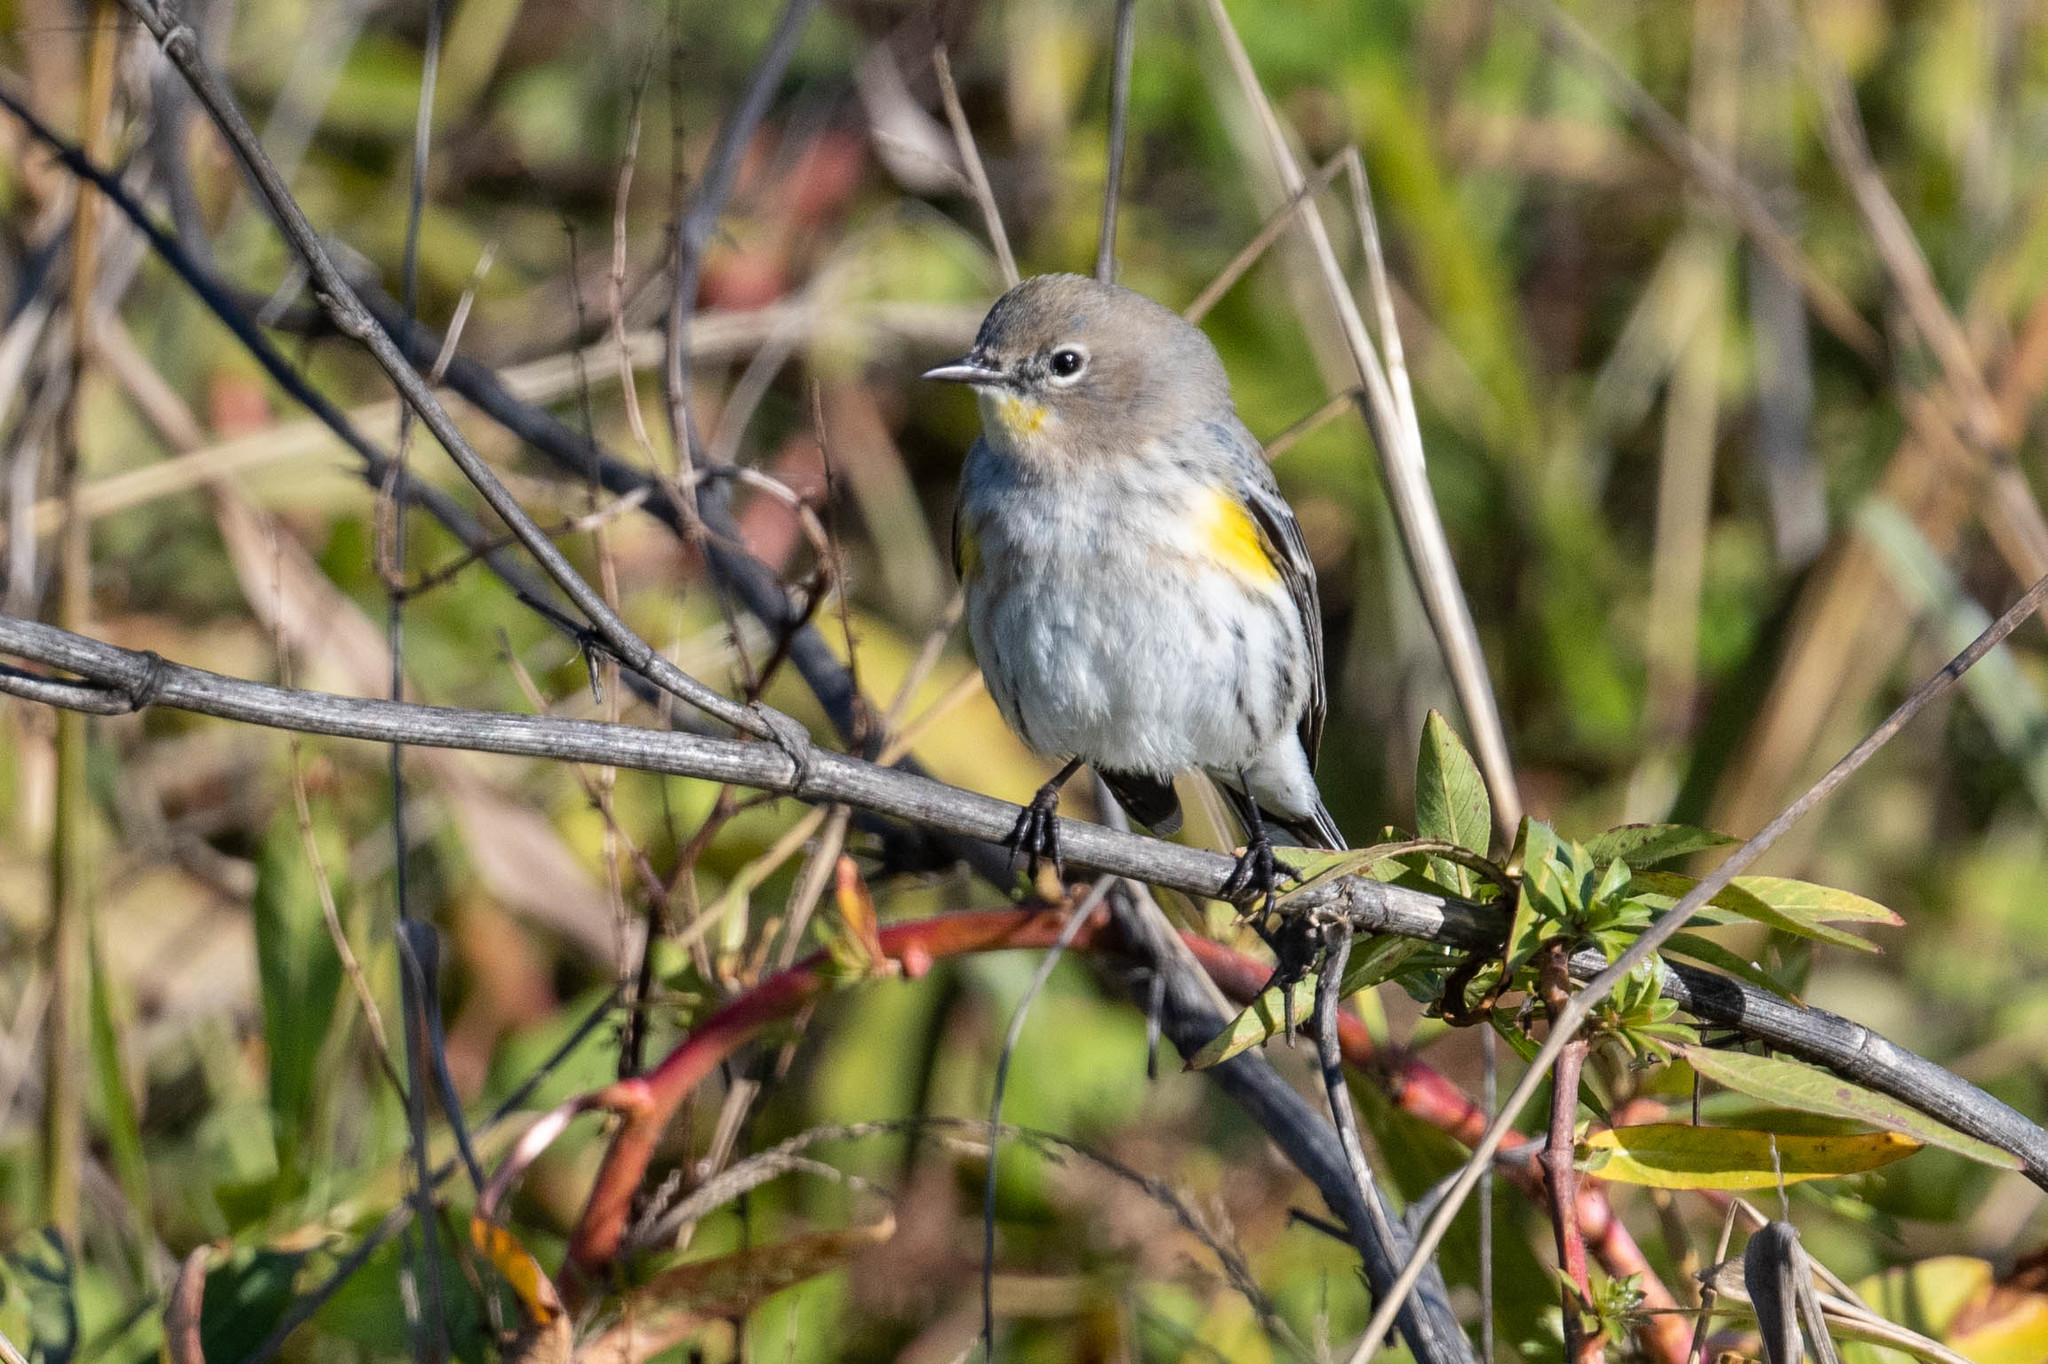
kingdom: Animalia
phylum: Chordata
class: Aves
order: Passeriformes
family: Parulidae
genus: Setophaga
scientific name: Setophaga coronata
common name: Myrtle warbler
